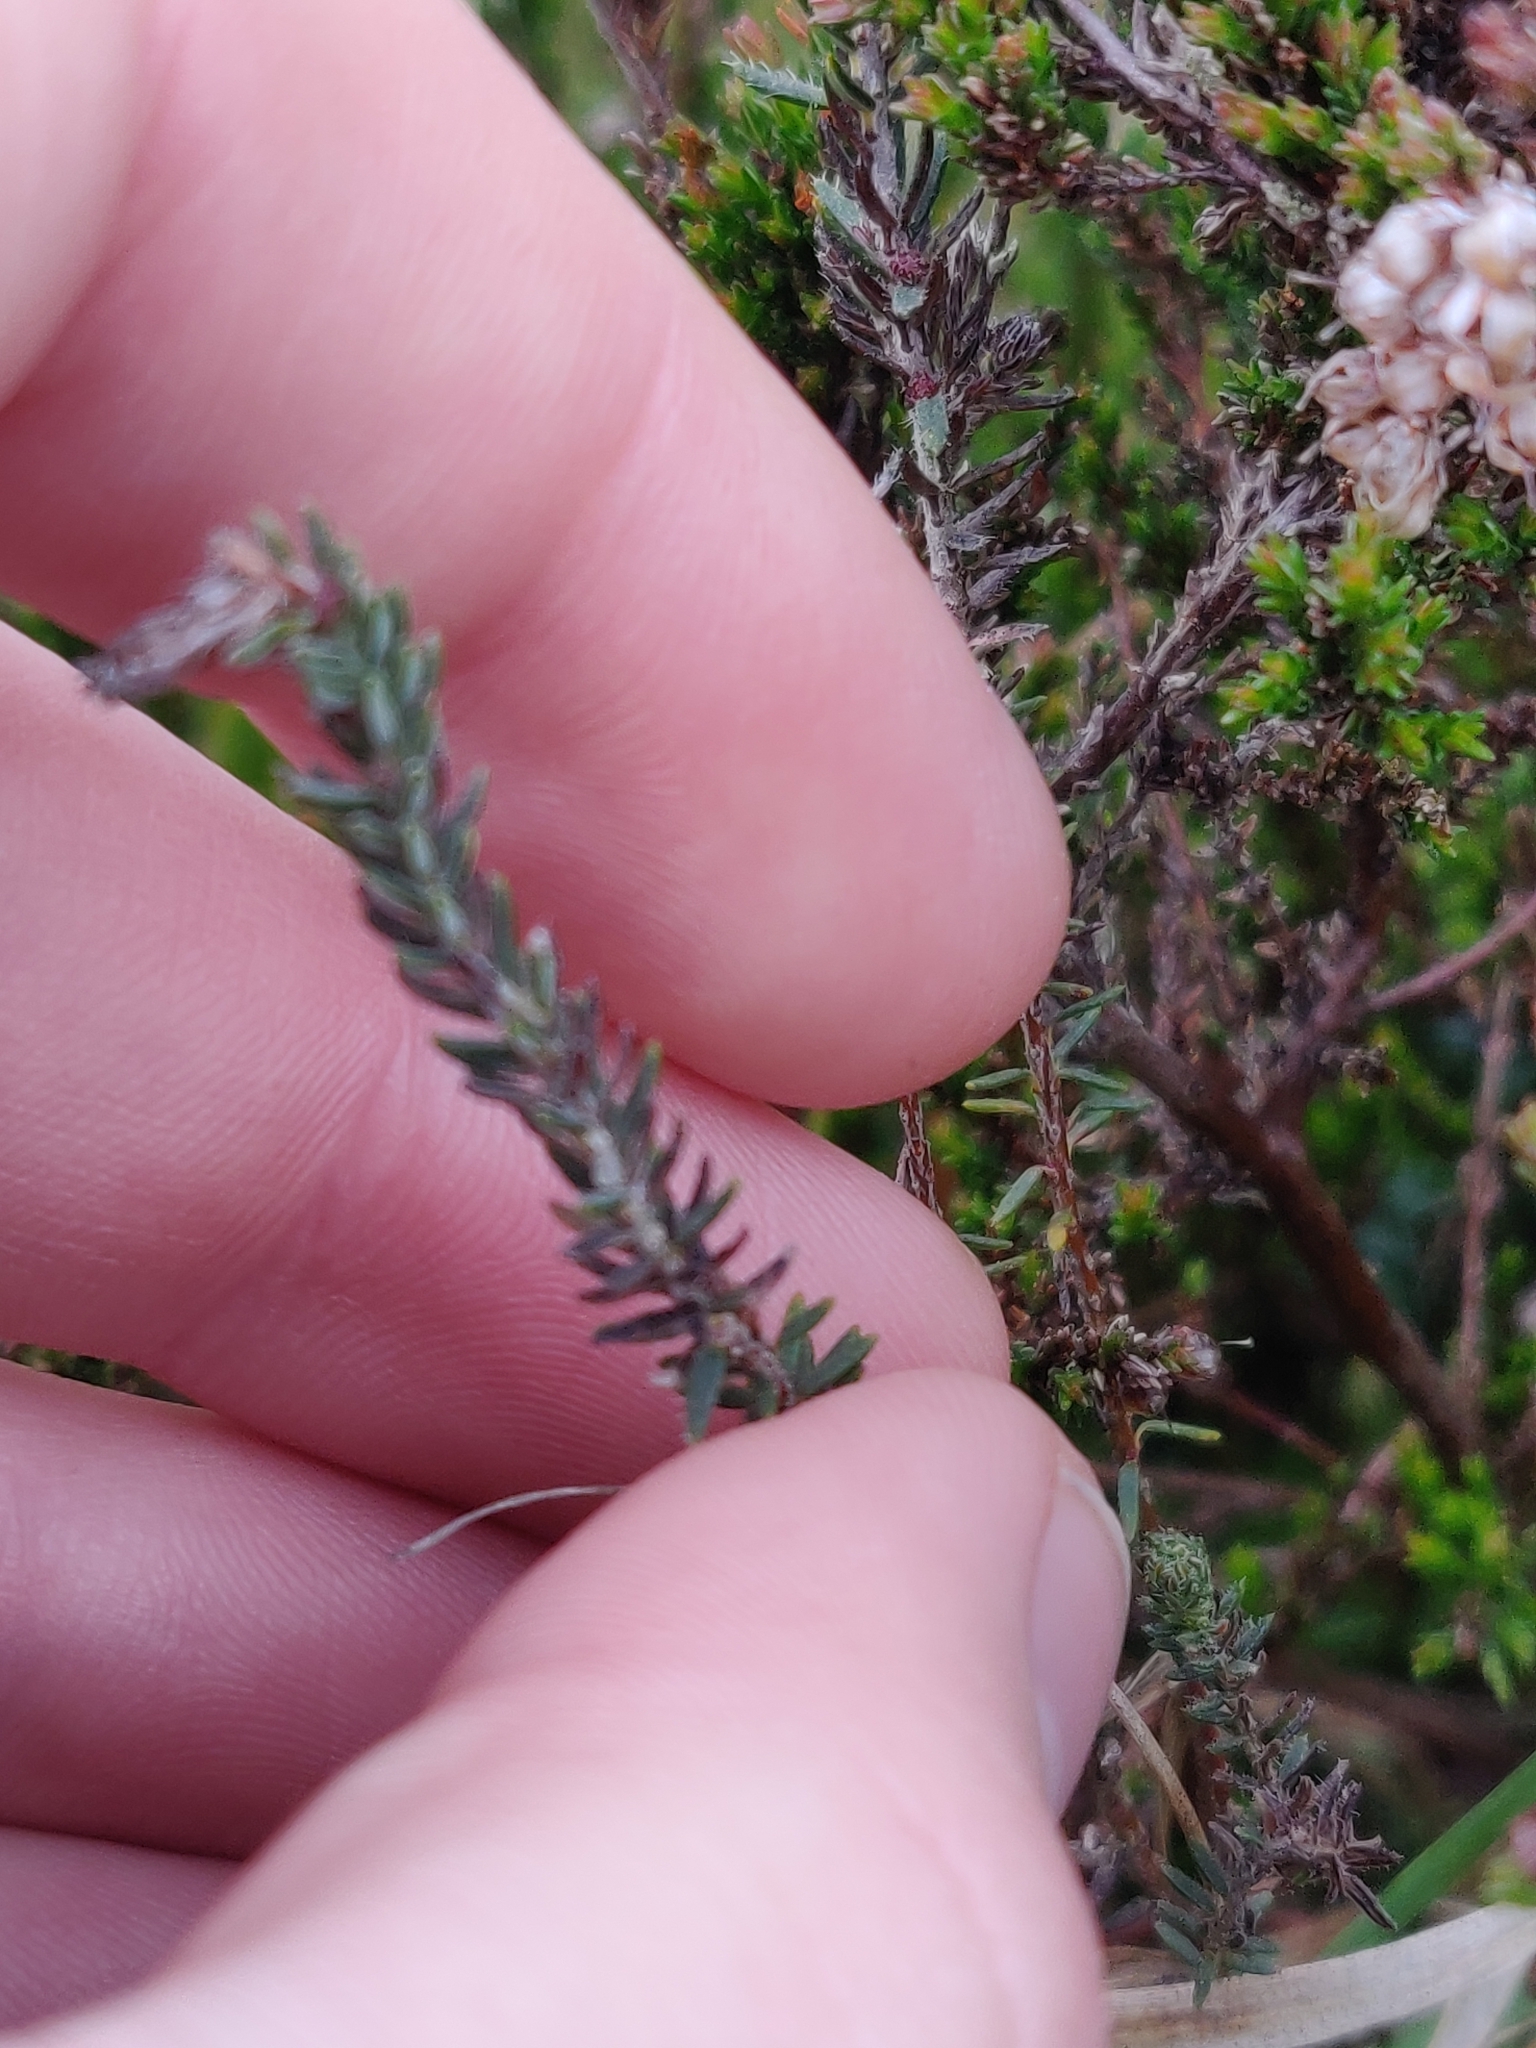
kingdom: Plantae
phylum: Tracheophyta
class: Magnoliopsida
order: Ericales
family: Ericaceae
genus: Erica
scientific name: Erica tetralix
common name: Cross-leaved heath
